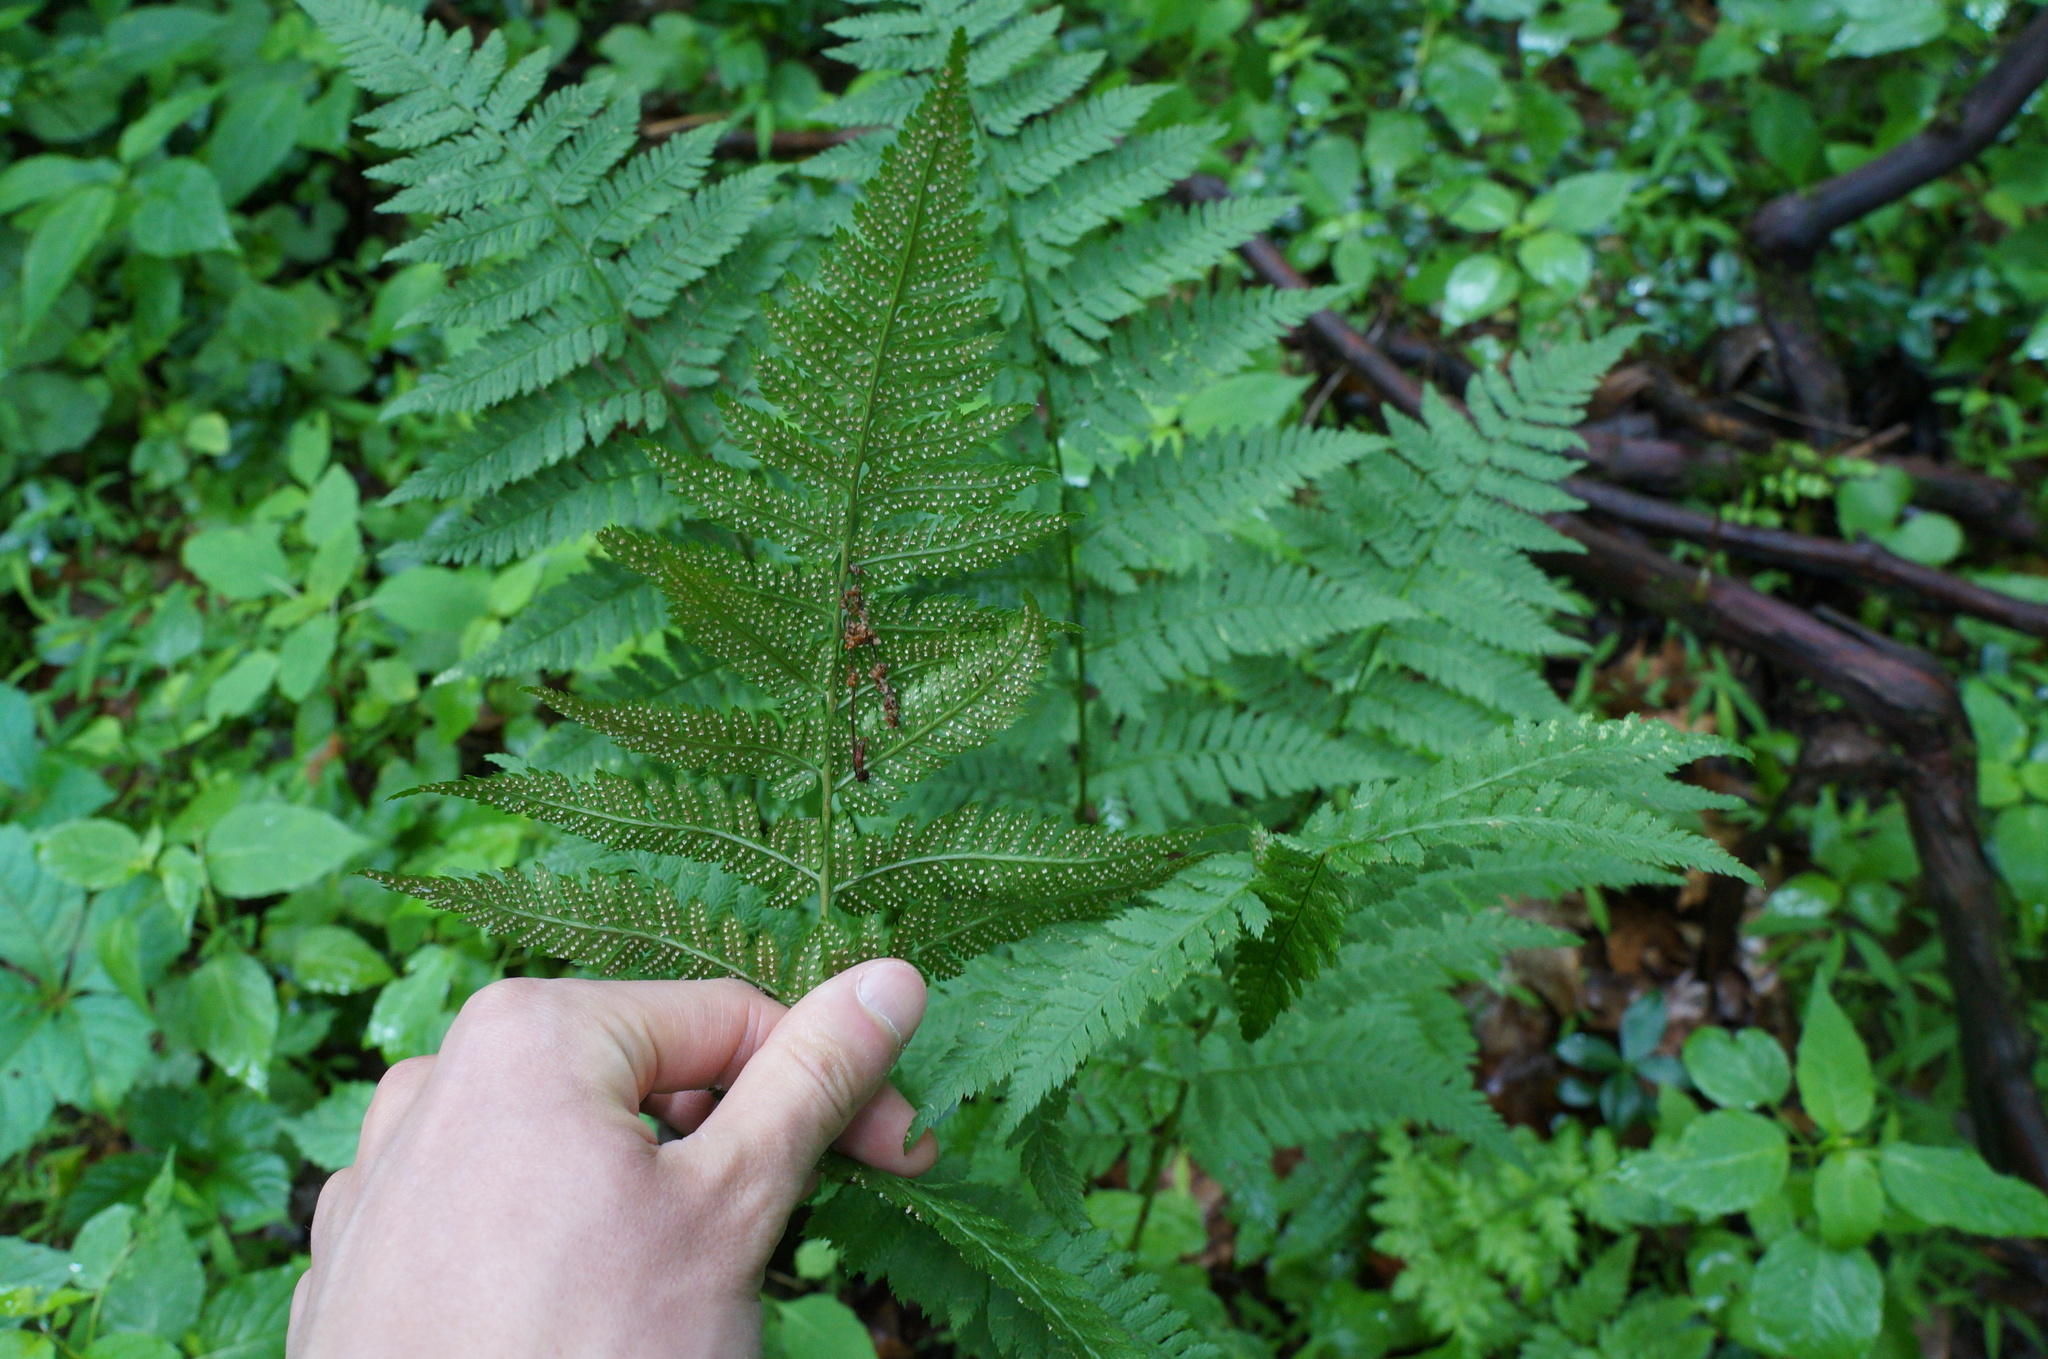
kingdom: Plantae
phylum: Tracheophyta
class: Polypodiopsida
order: Polypodiales
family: Dryopteridaceae
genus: Dryopteris
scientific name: Dryopteris carthusiana
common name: Narrow buckler-fern
